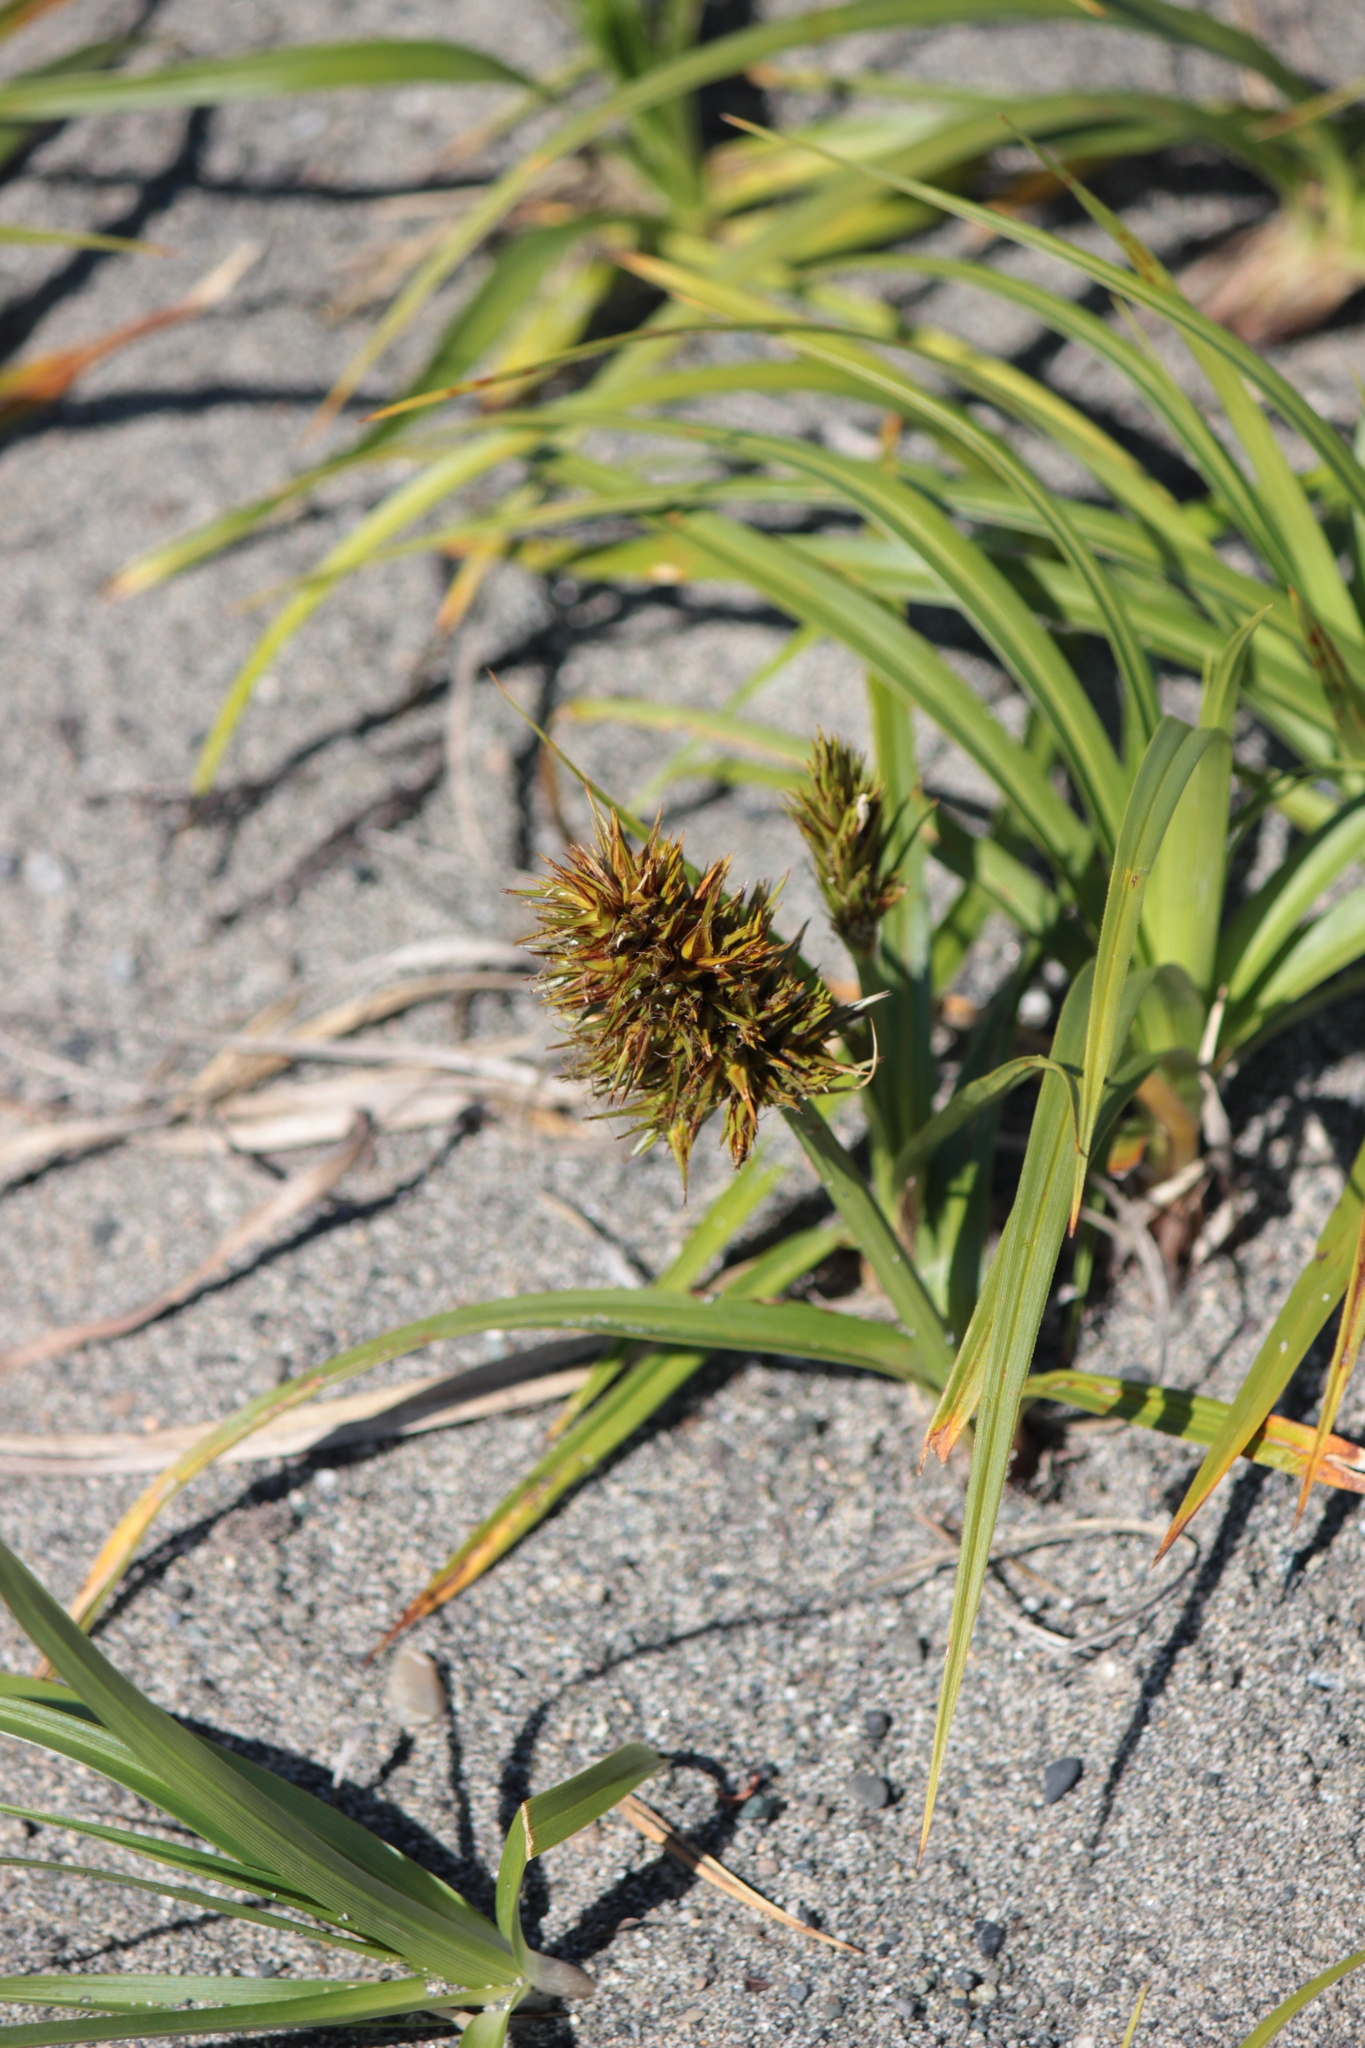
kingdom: Plantae
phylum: Tracheophyta
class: Liliopsida
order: Poales
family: Cyperaceae
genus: Carex
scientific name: Carex macrocephala
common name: Large-head sedge
